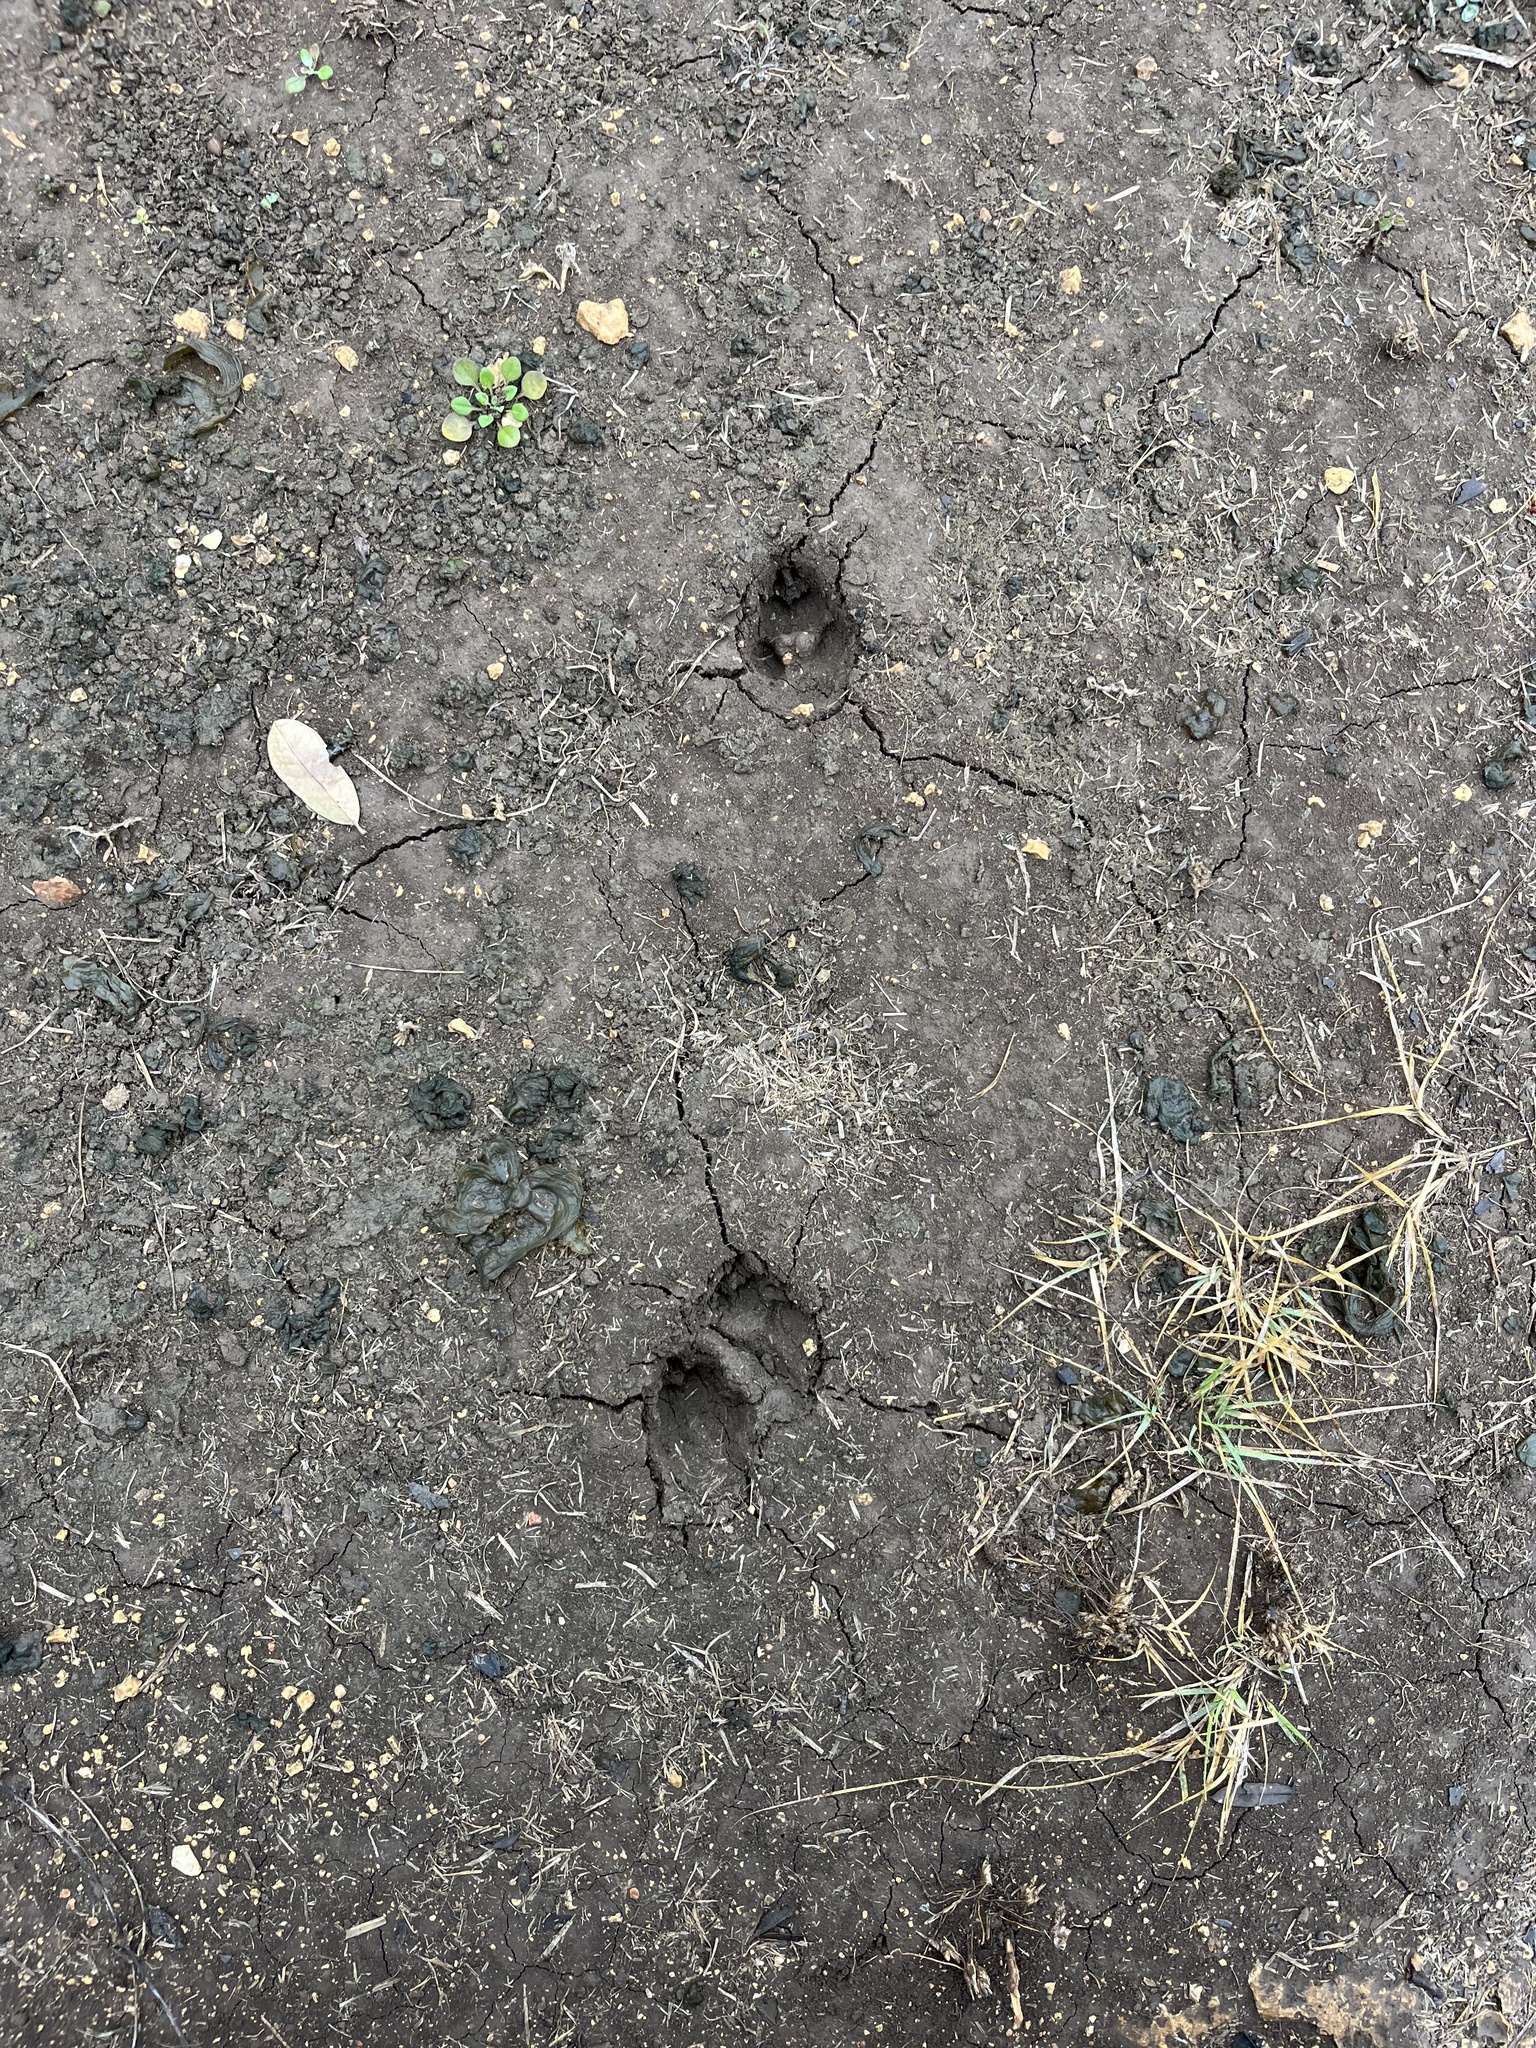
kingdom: Animalia
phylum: Chordata
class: Mammalia
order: Carnivora
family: Canidae
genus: Urocyon
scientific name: Urocyon cinereoargenteus
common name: Gray fox
